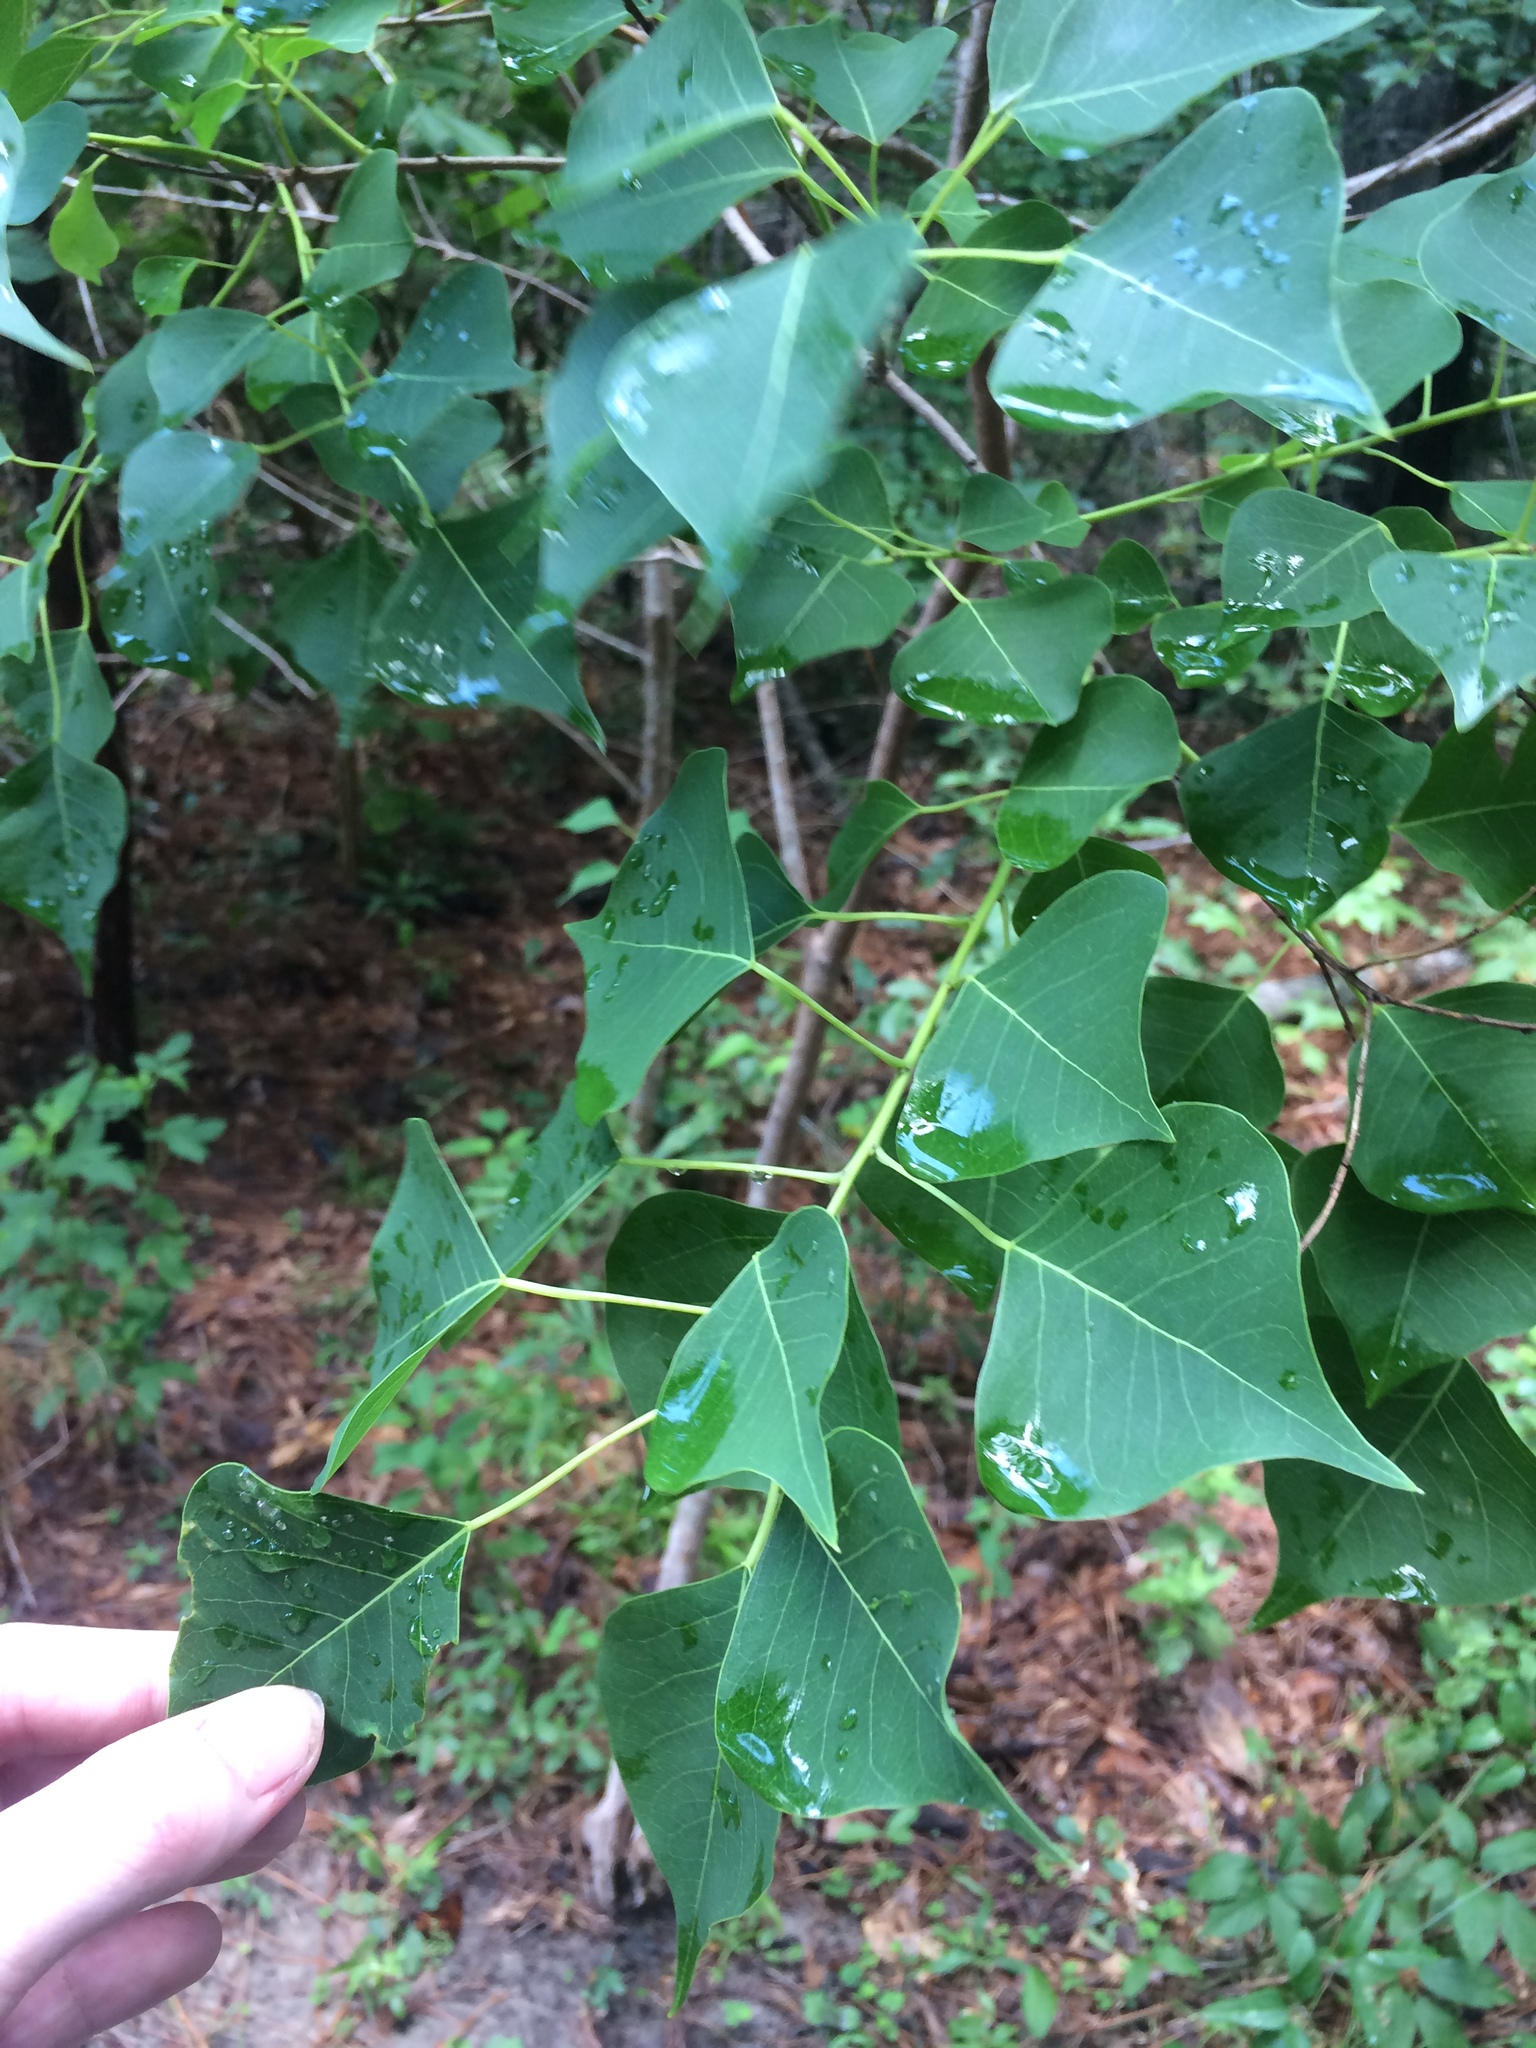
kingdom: Plantae
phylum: Tracheophyta
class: Magnoliopsida
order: Malpighiales
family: Euphorbiaceae
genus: Triadica
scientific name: Triadica sebifera
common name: Chinese tallow
